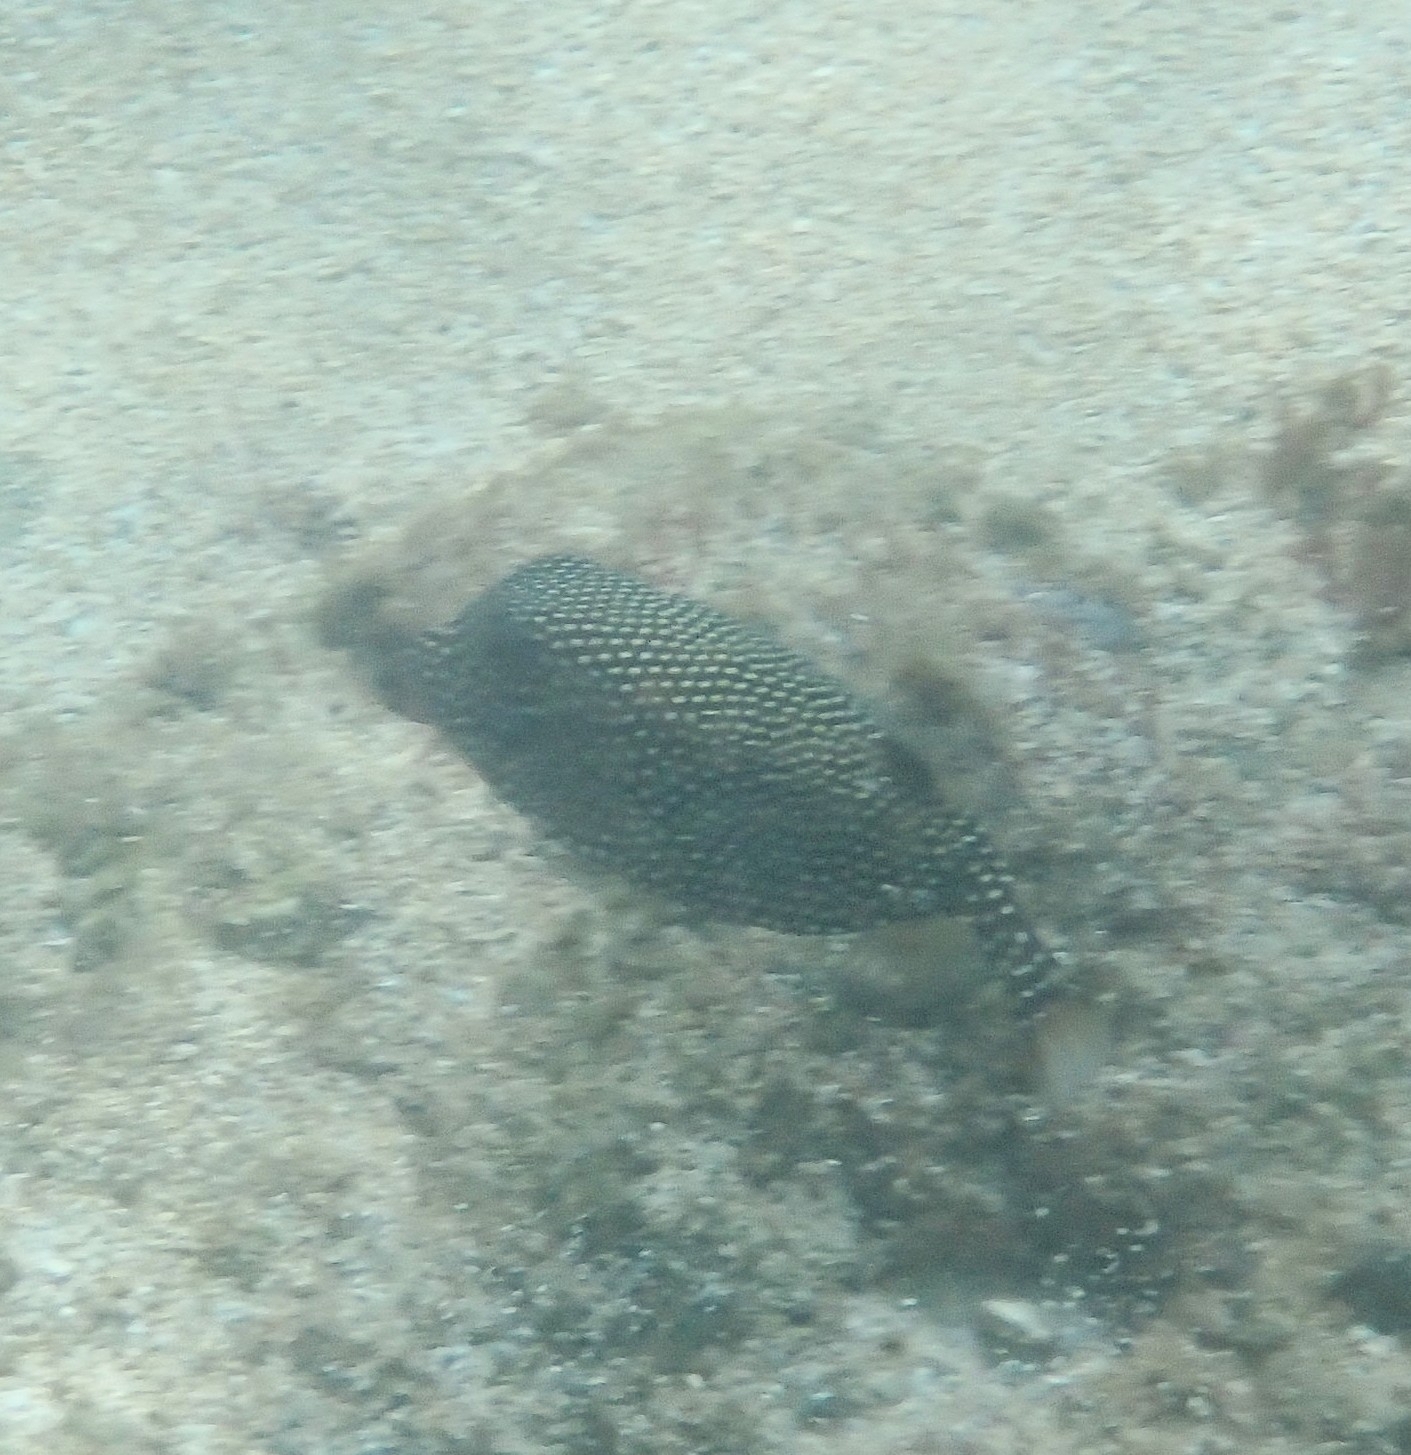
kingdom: Animalia
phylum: Chordata
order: Tetraodontiformes
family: Ostraciidae
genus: Ostracion
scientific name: Ostracion meleagris
